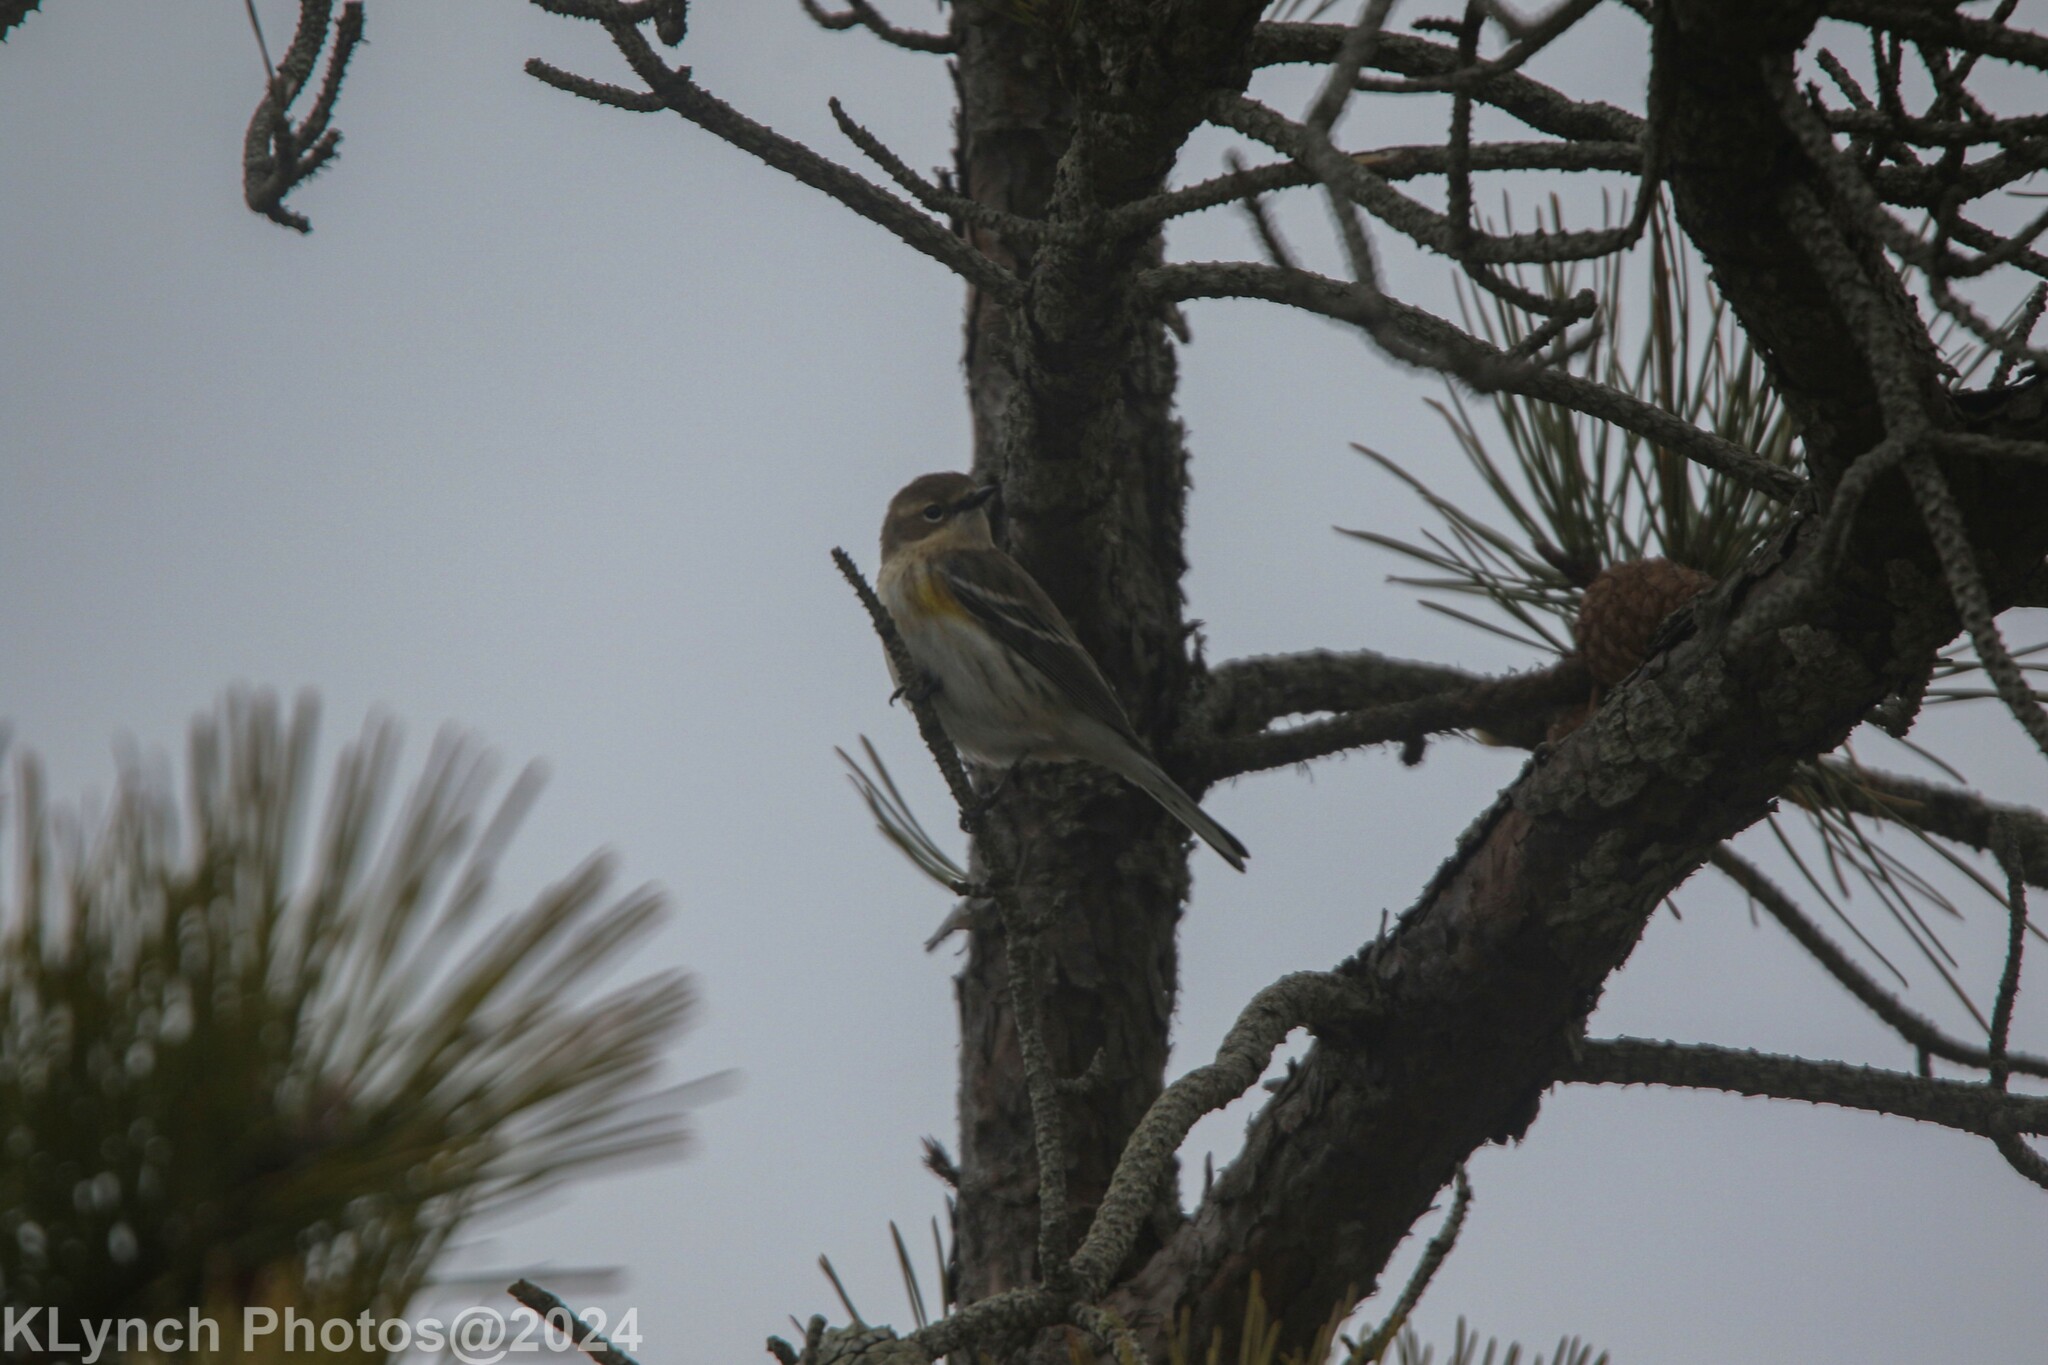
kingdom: Animalia
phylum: Chordata
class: Aves
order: Passeriformes
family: Parulidae
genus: Setophaga
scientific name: Setophaga coronata
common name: Myrtle warbler
